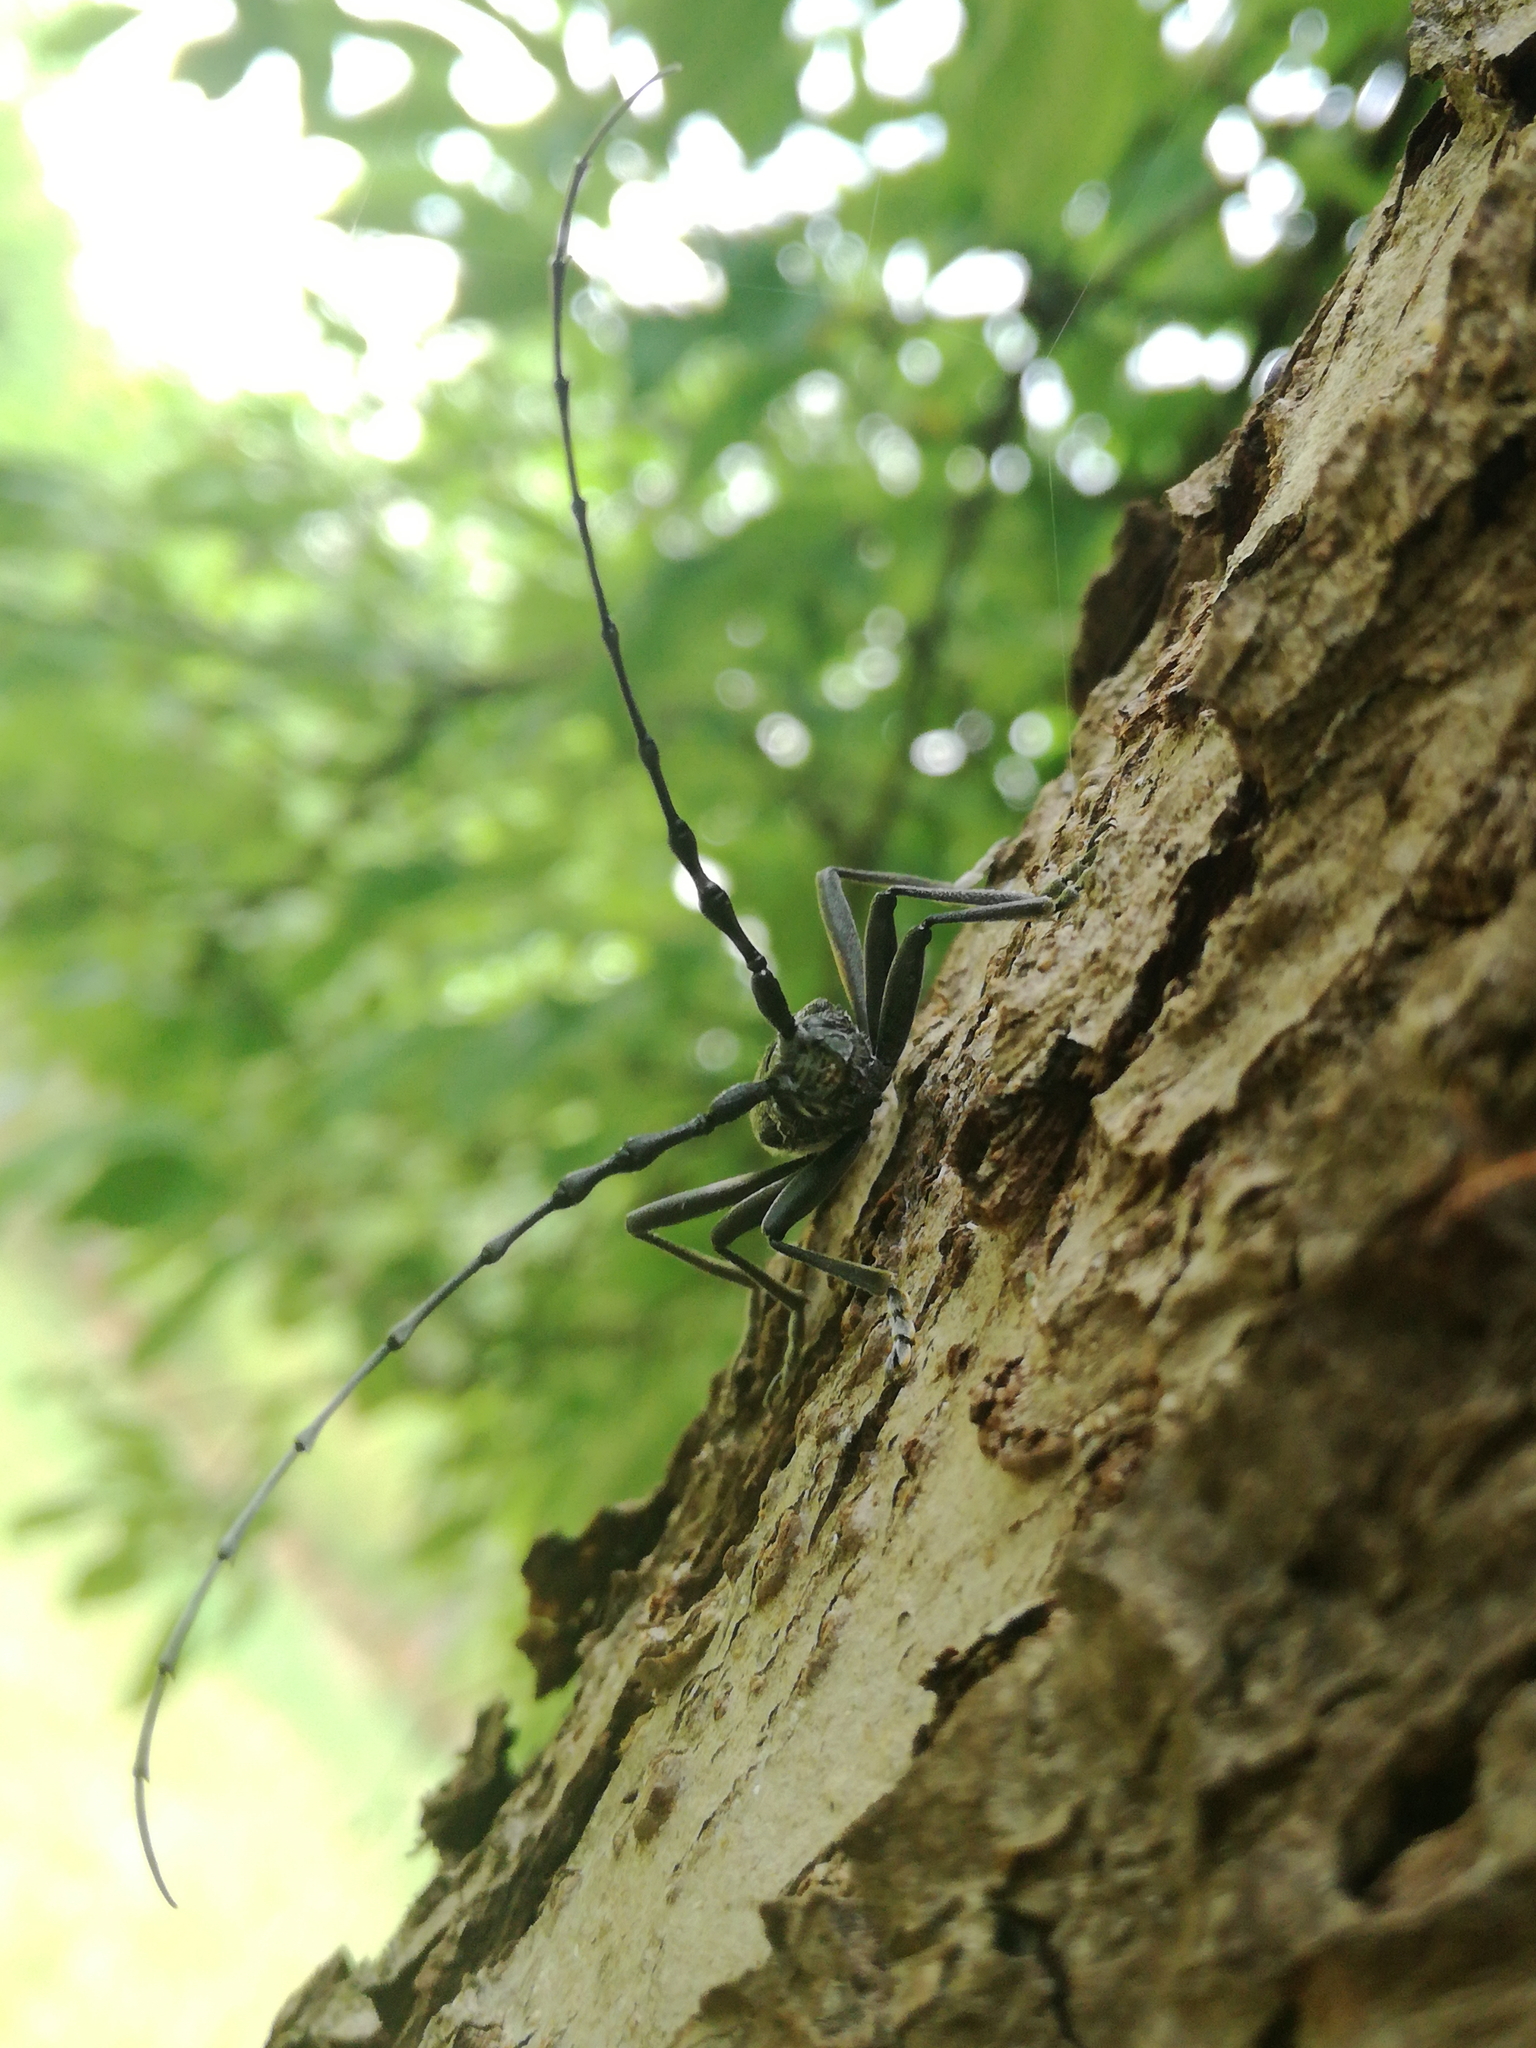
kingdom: Animalia
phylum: Arthropoda
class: Insecta
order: Coleoptera
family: Cerambycidae
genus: Cerambyx
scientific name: Cerambyx scopolii
